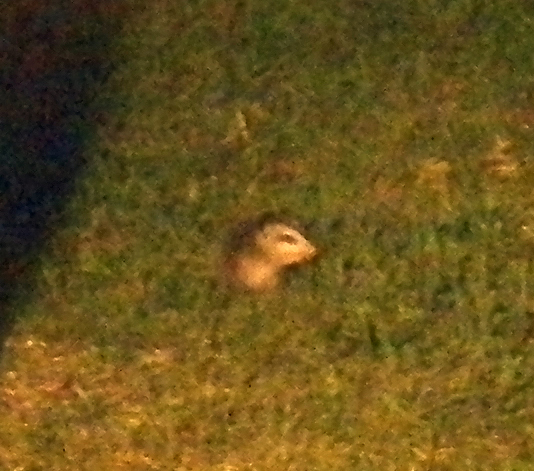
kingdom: Animalia
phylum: Chordata
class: Mammalia
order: Didelphimorphia
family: Didelphidae
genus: Didelphis
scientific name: Didelphis virginiana
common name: Virginia opossum
